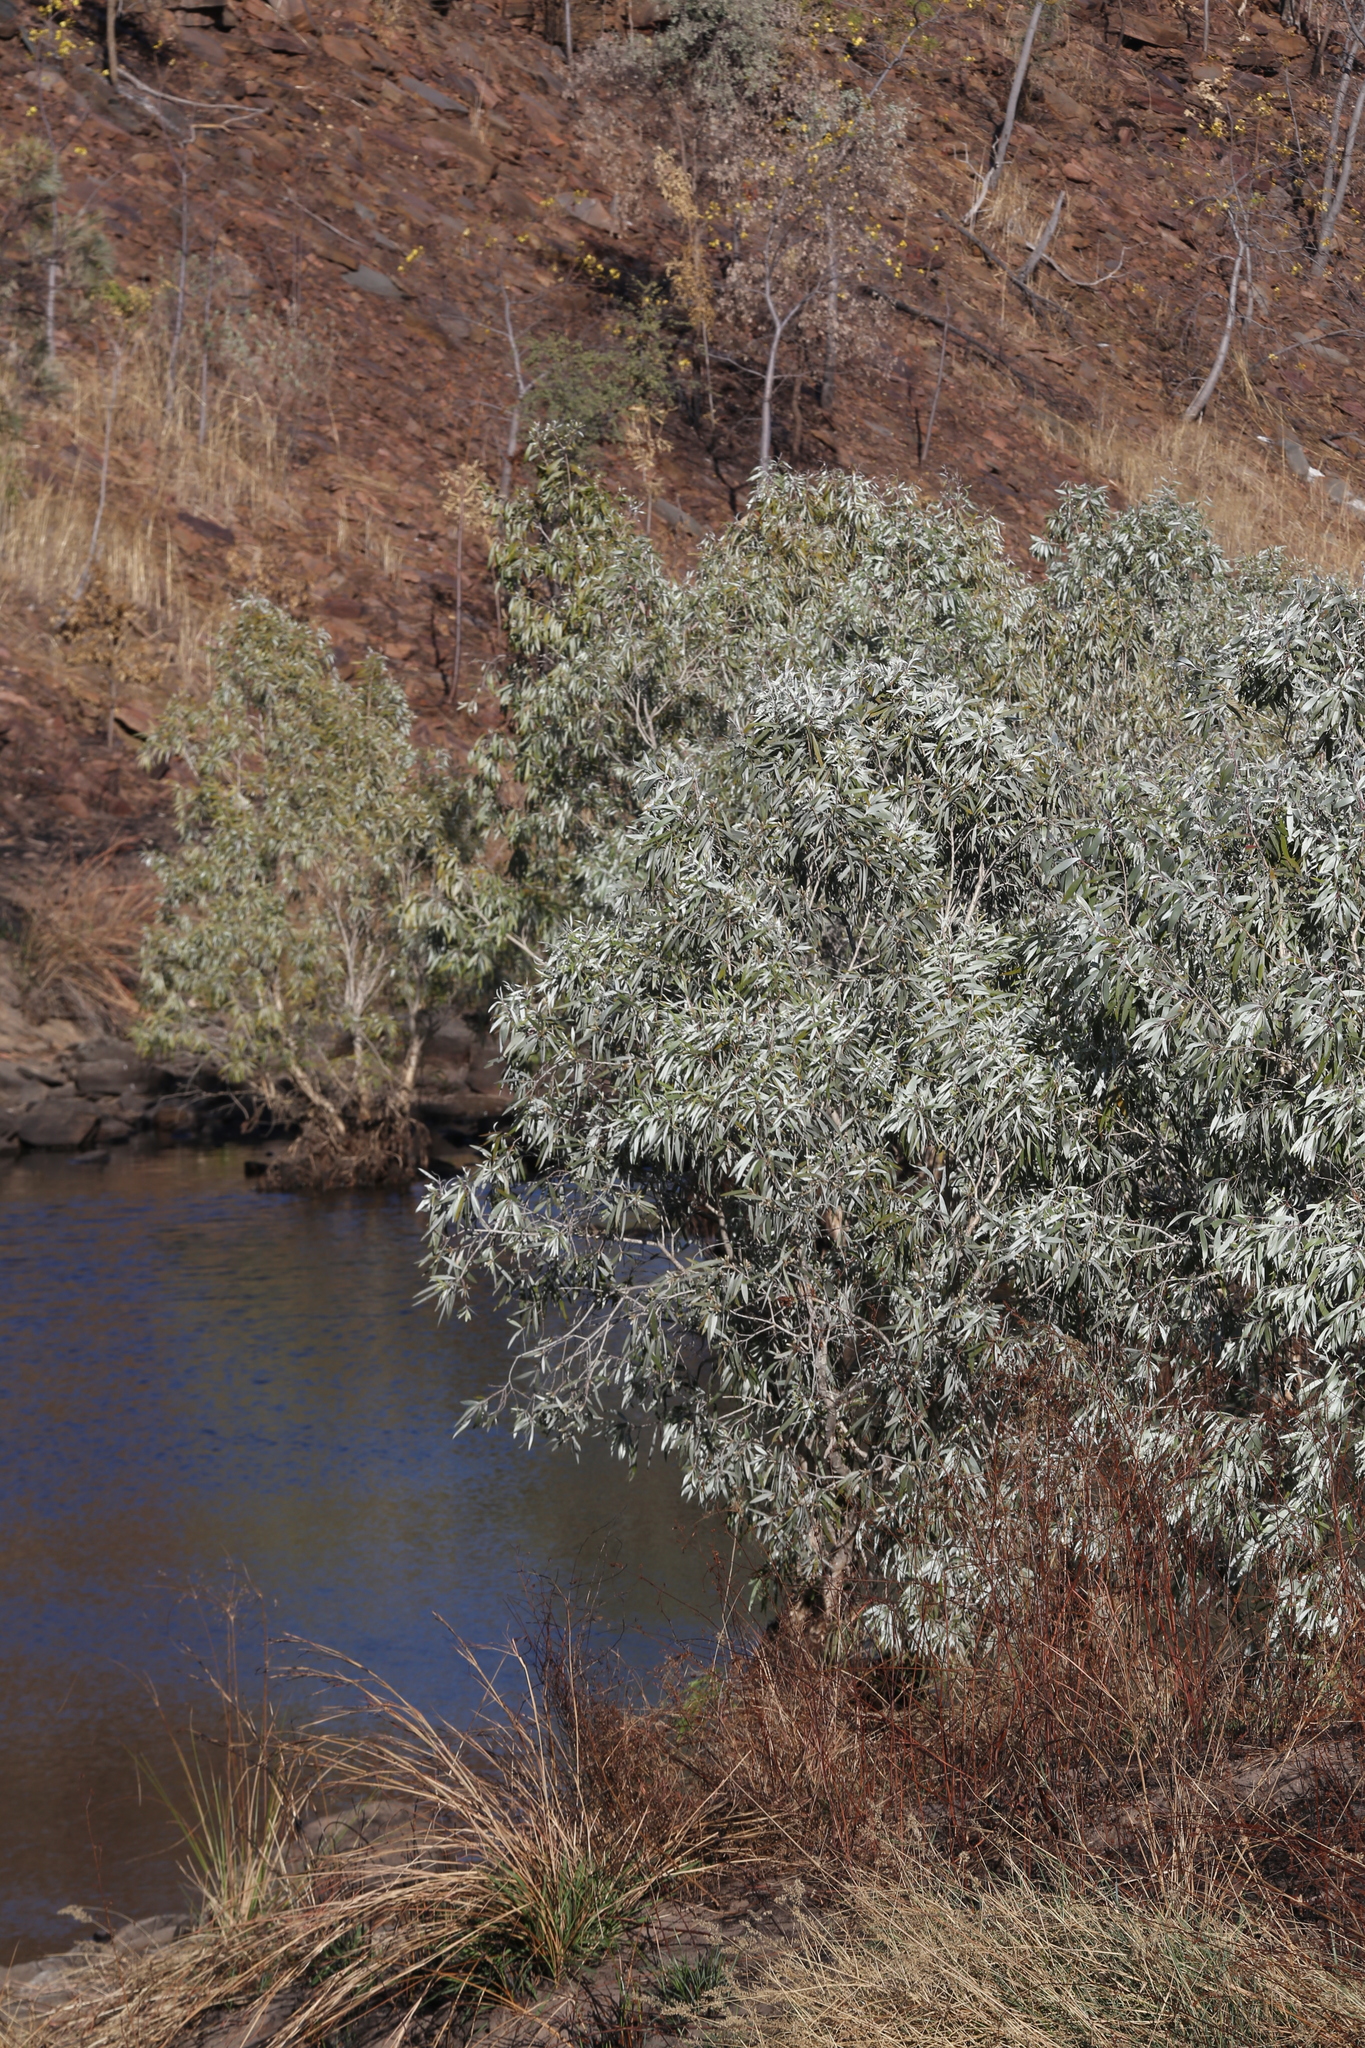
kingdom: Plantae
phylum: Tracheophyta
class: Magnoliopsida
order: Myrtales
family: Myrtaceae
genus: Melaleuca
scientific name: Melaleuca argentea
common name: Silver cadjeput
